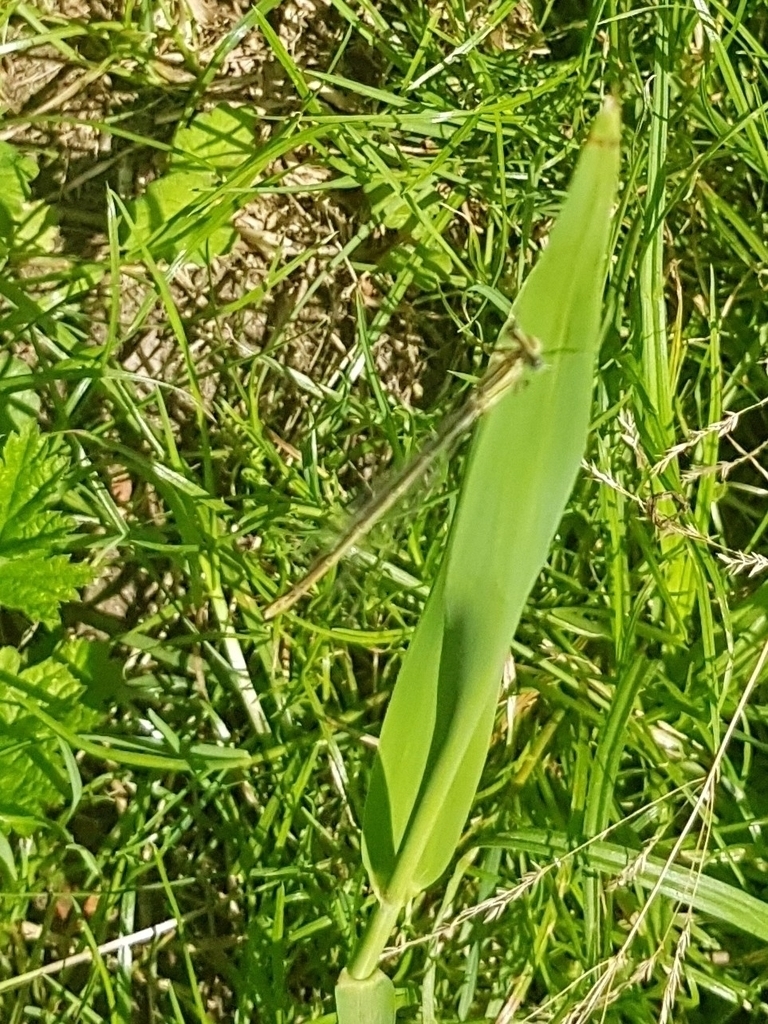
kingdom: Animalia
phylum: Arthropoda
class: Insecta
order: Odonata
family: Platycnemididae
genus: Platycnemis
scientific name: Platycnemis pennipes
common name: White-legged damselfly
